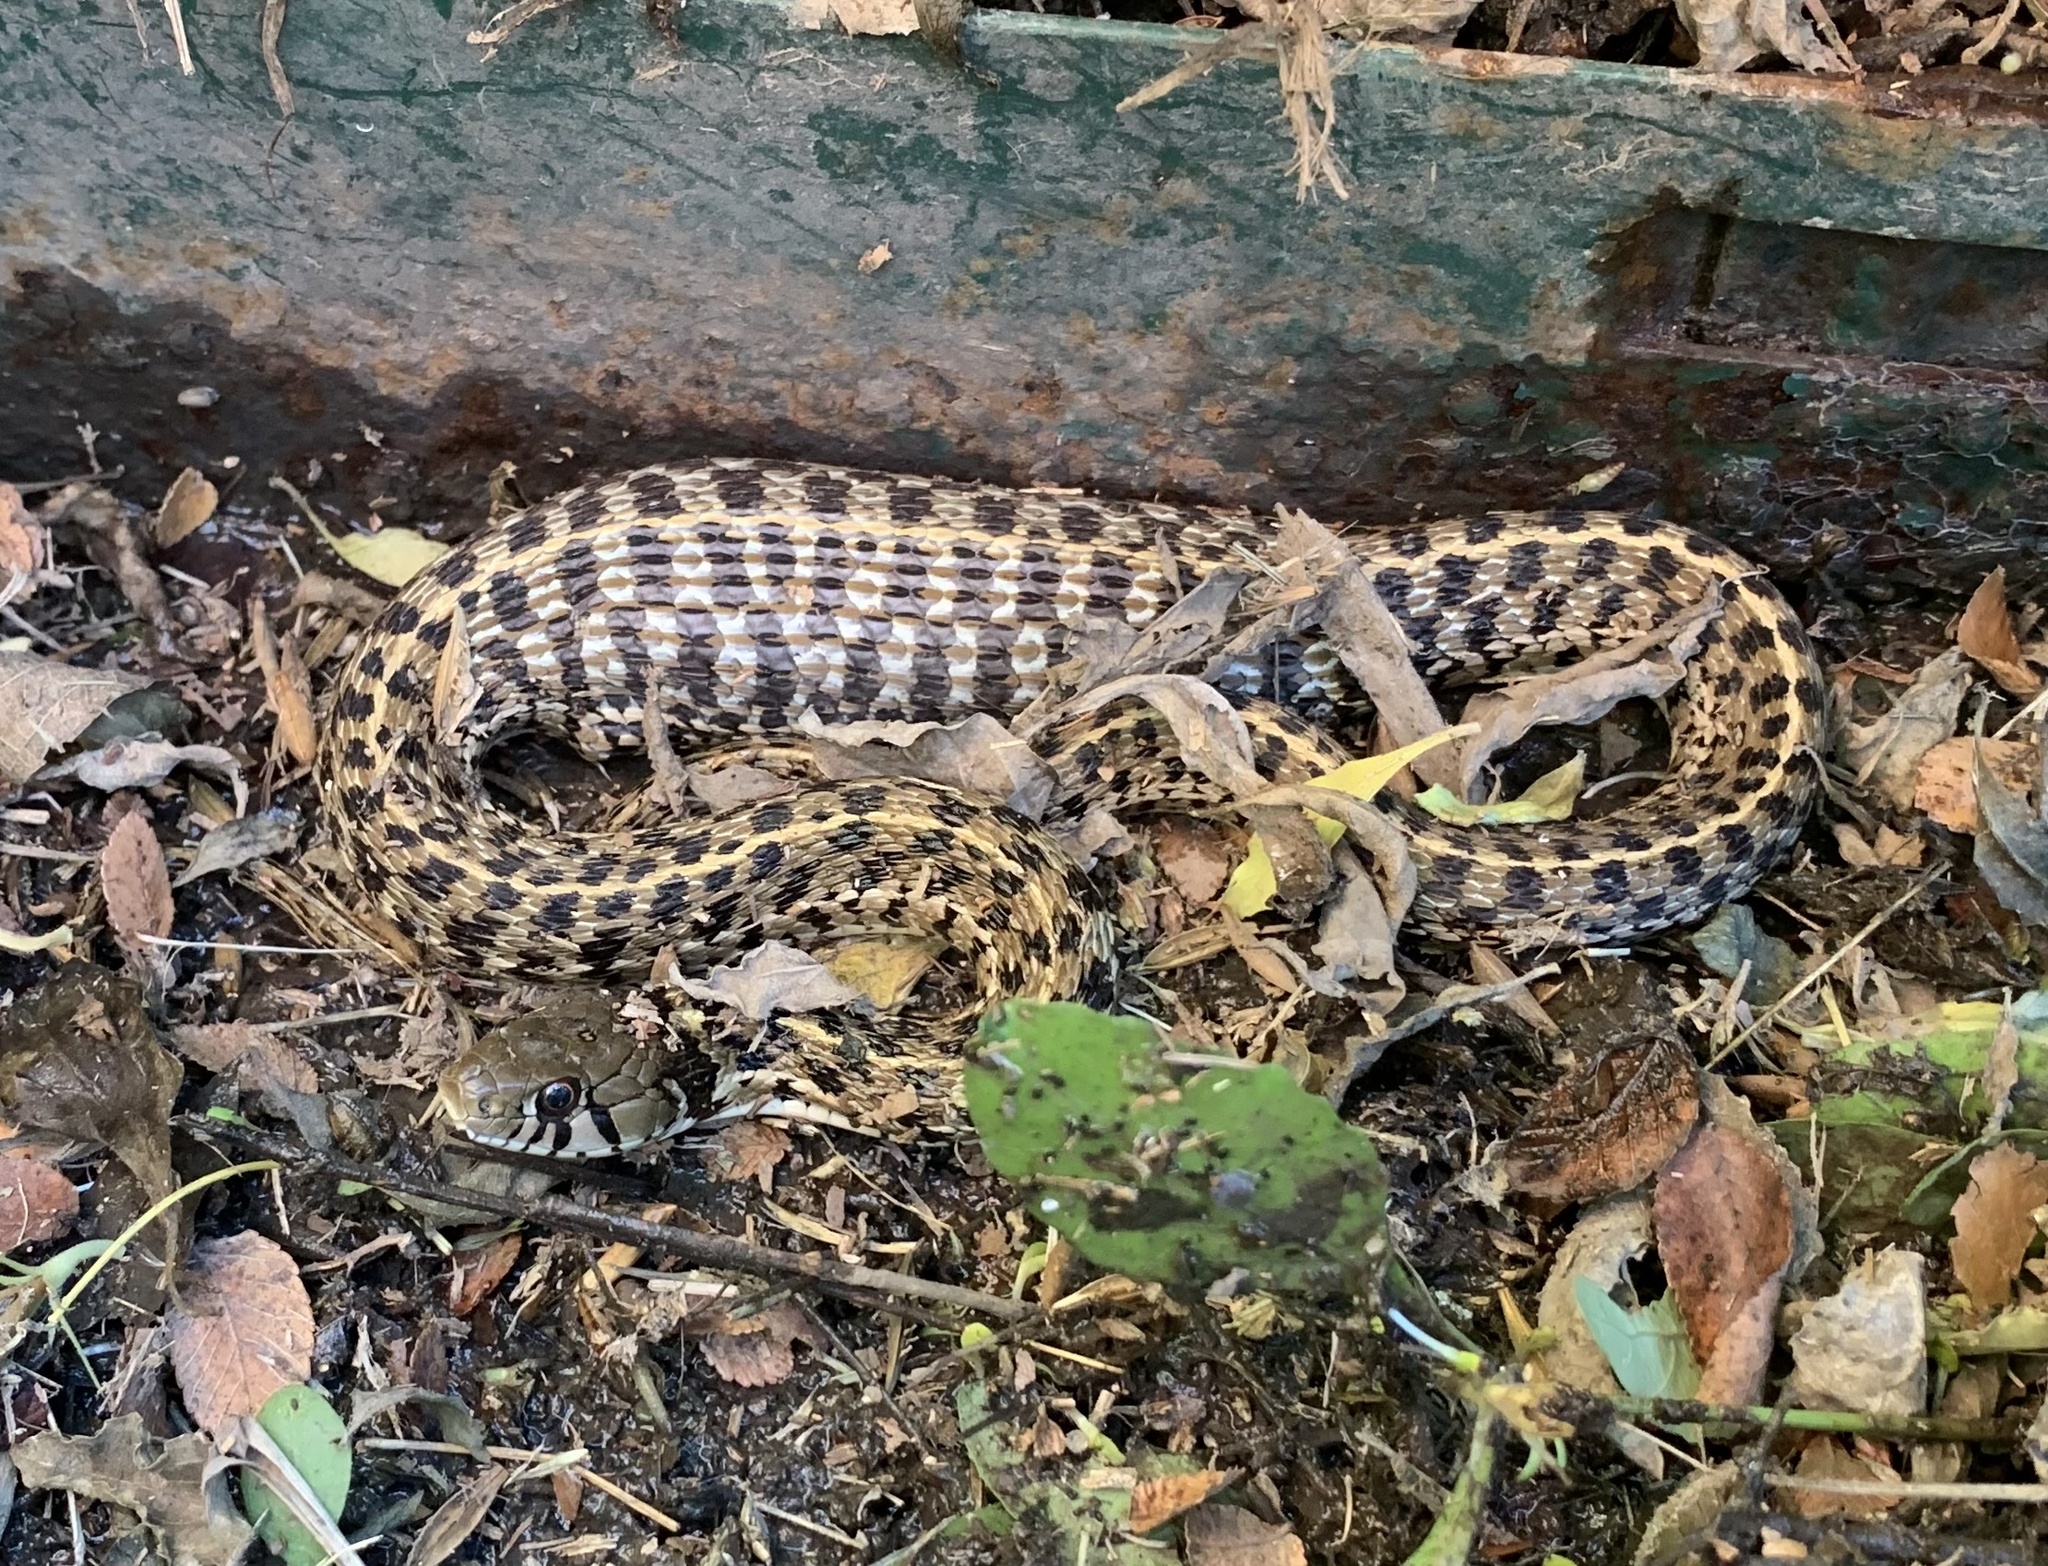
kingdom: Animalia
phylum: Chordata
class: Squamata
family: Colubridae
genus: Thamnophis
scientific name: Thamnophis marcianus
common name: Checkered garter snake
